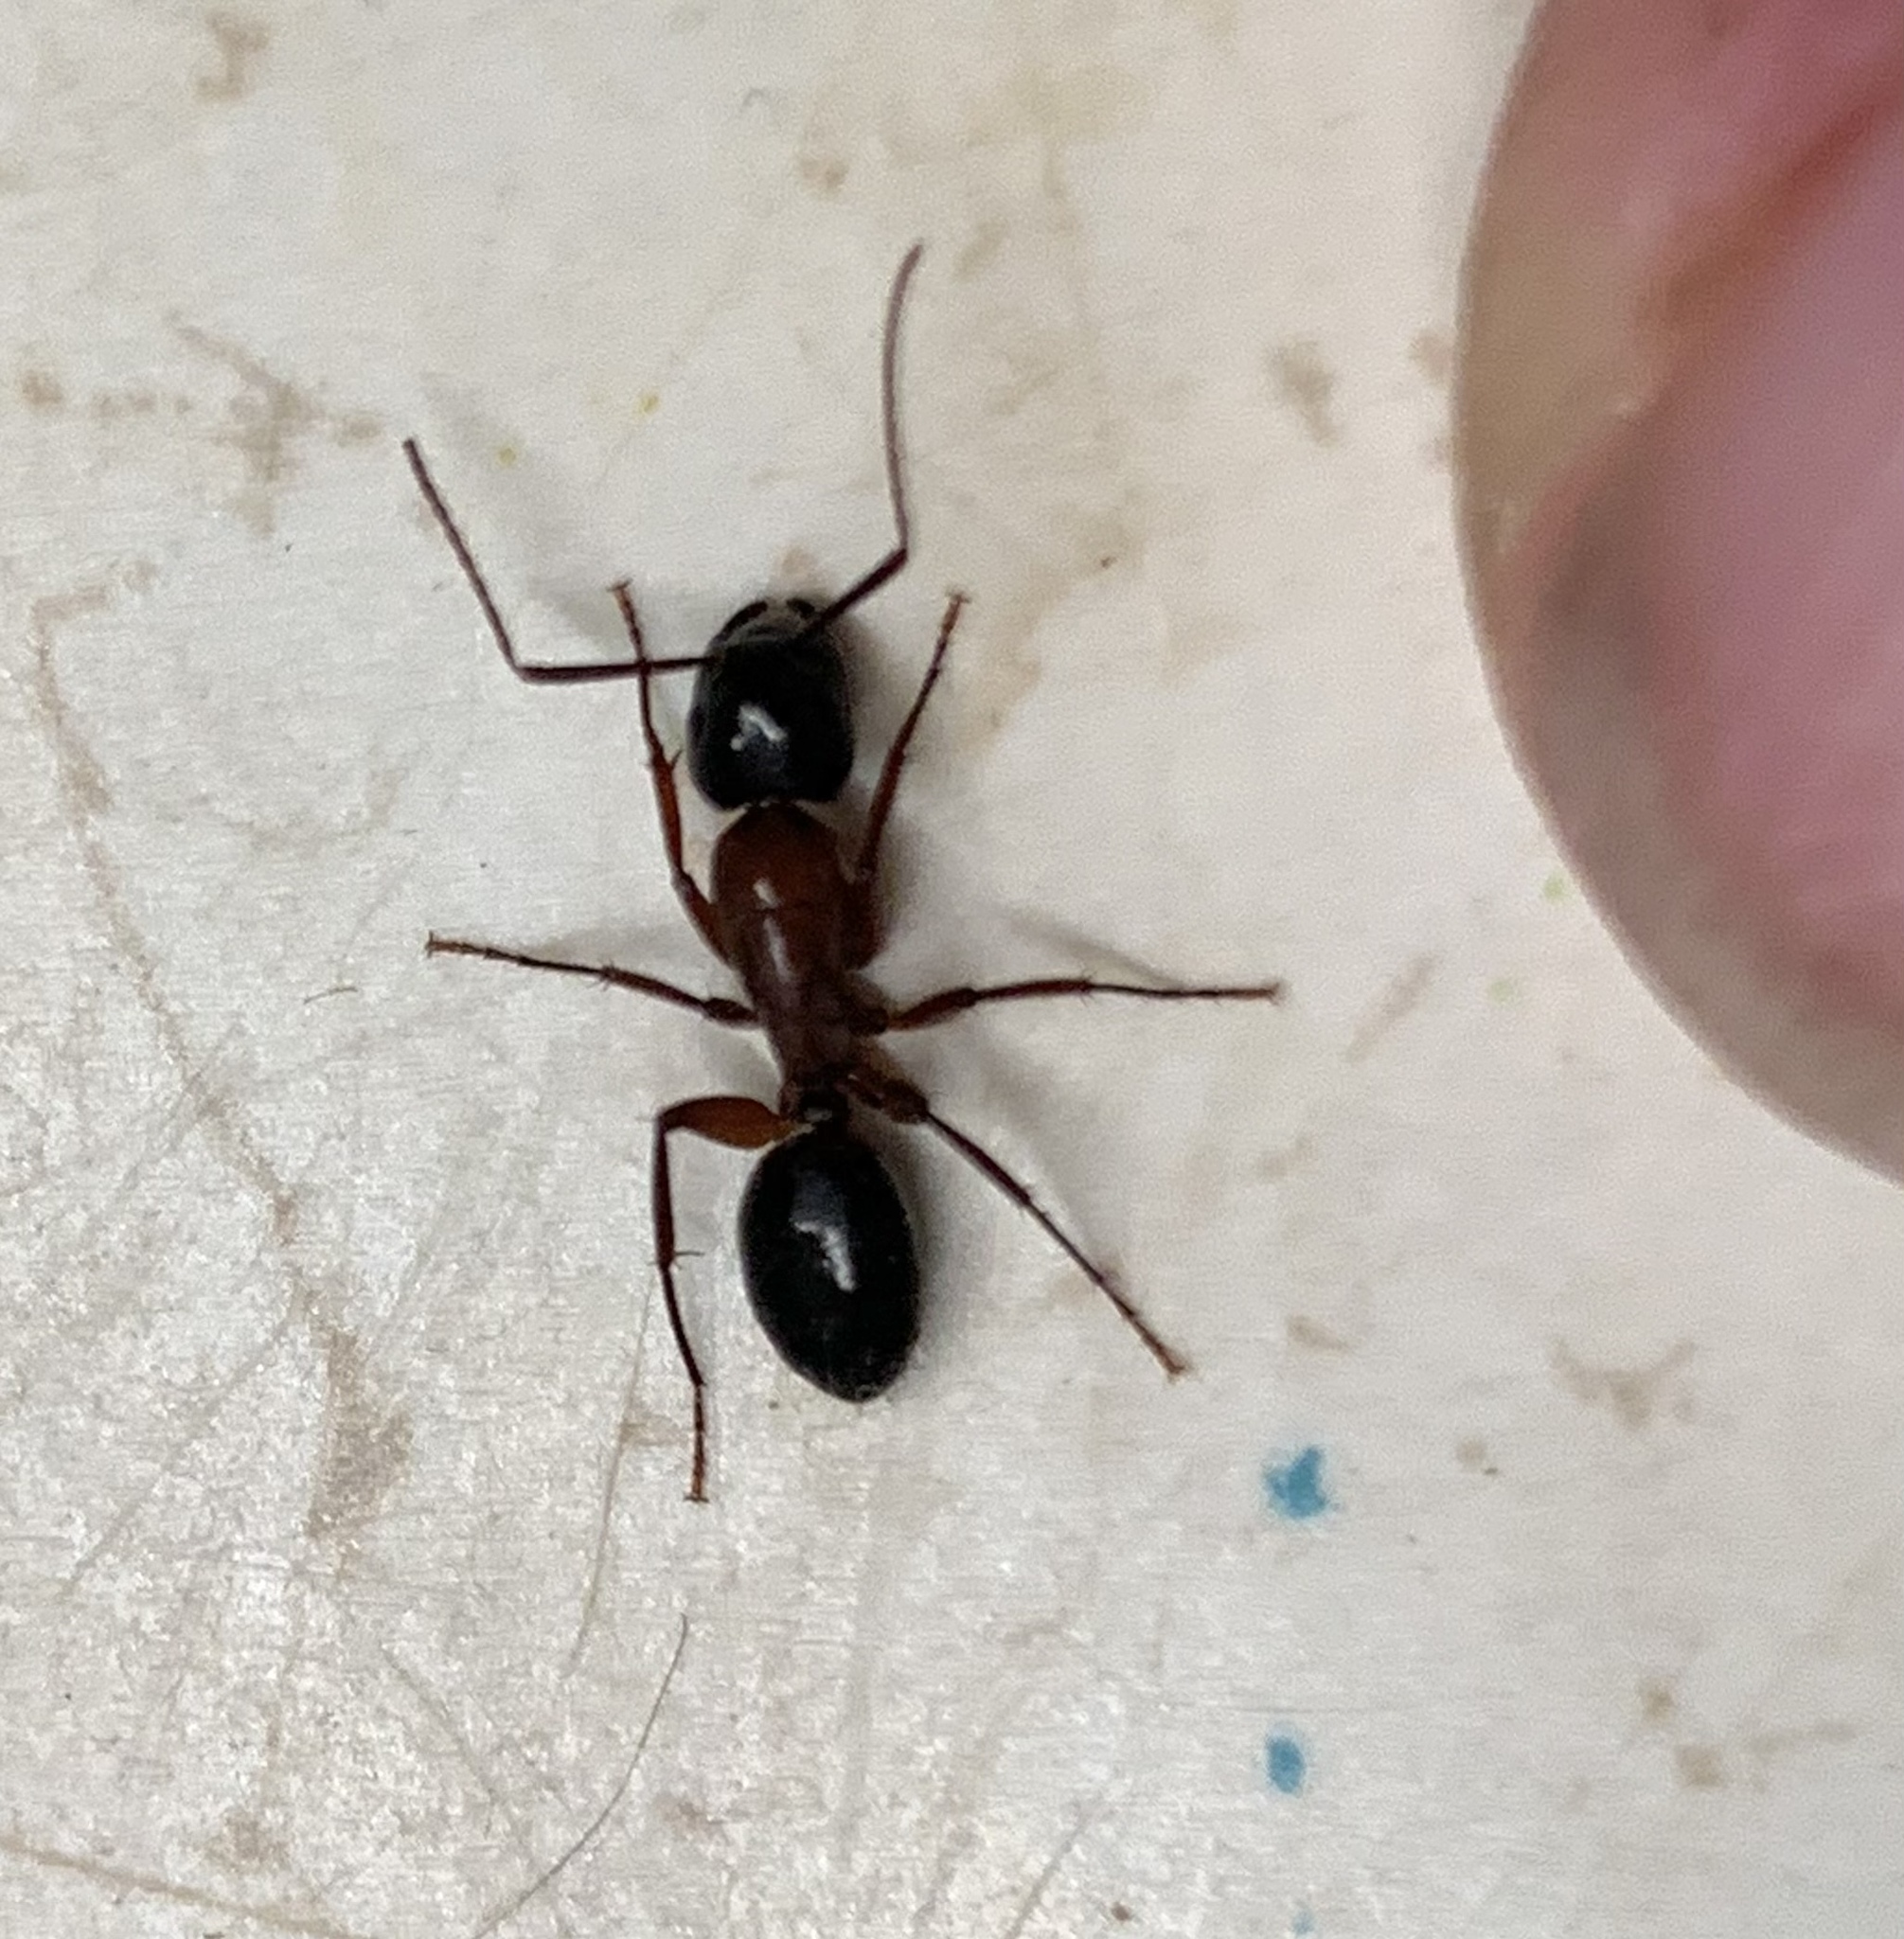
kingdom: Animalia
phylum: Arthropoda
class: Insecta
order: Hymenoptera
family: Formicidae
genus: Camponotus
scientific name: Camponotus texanus
